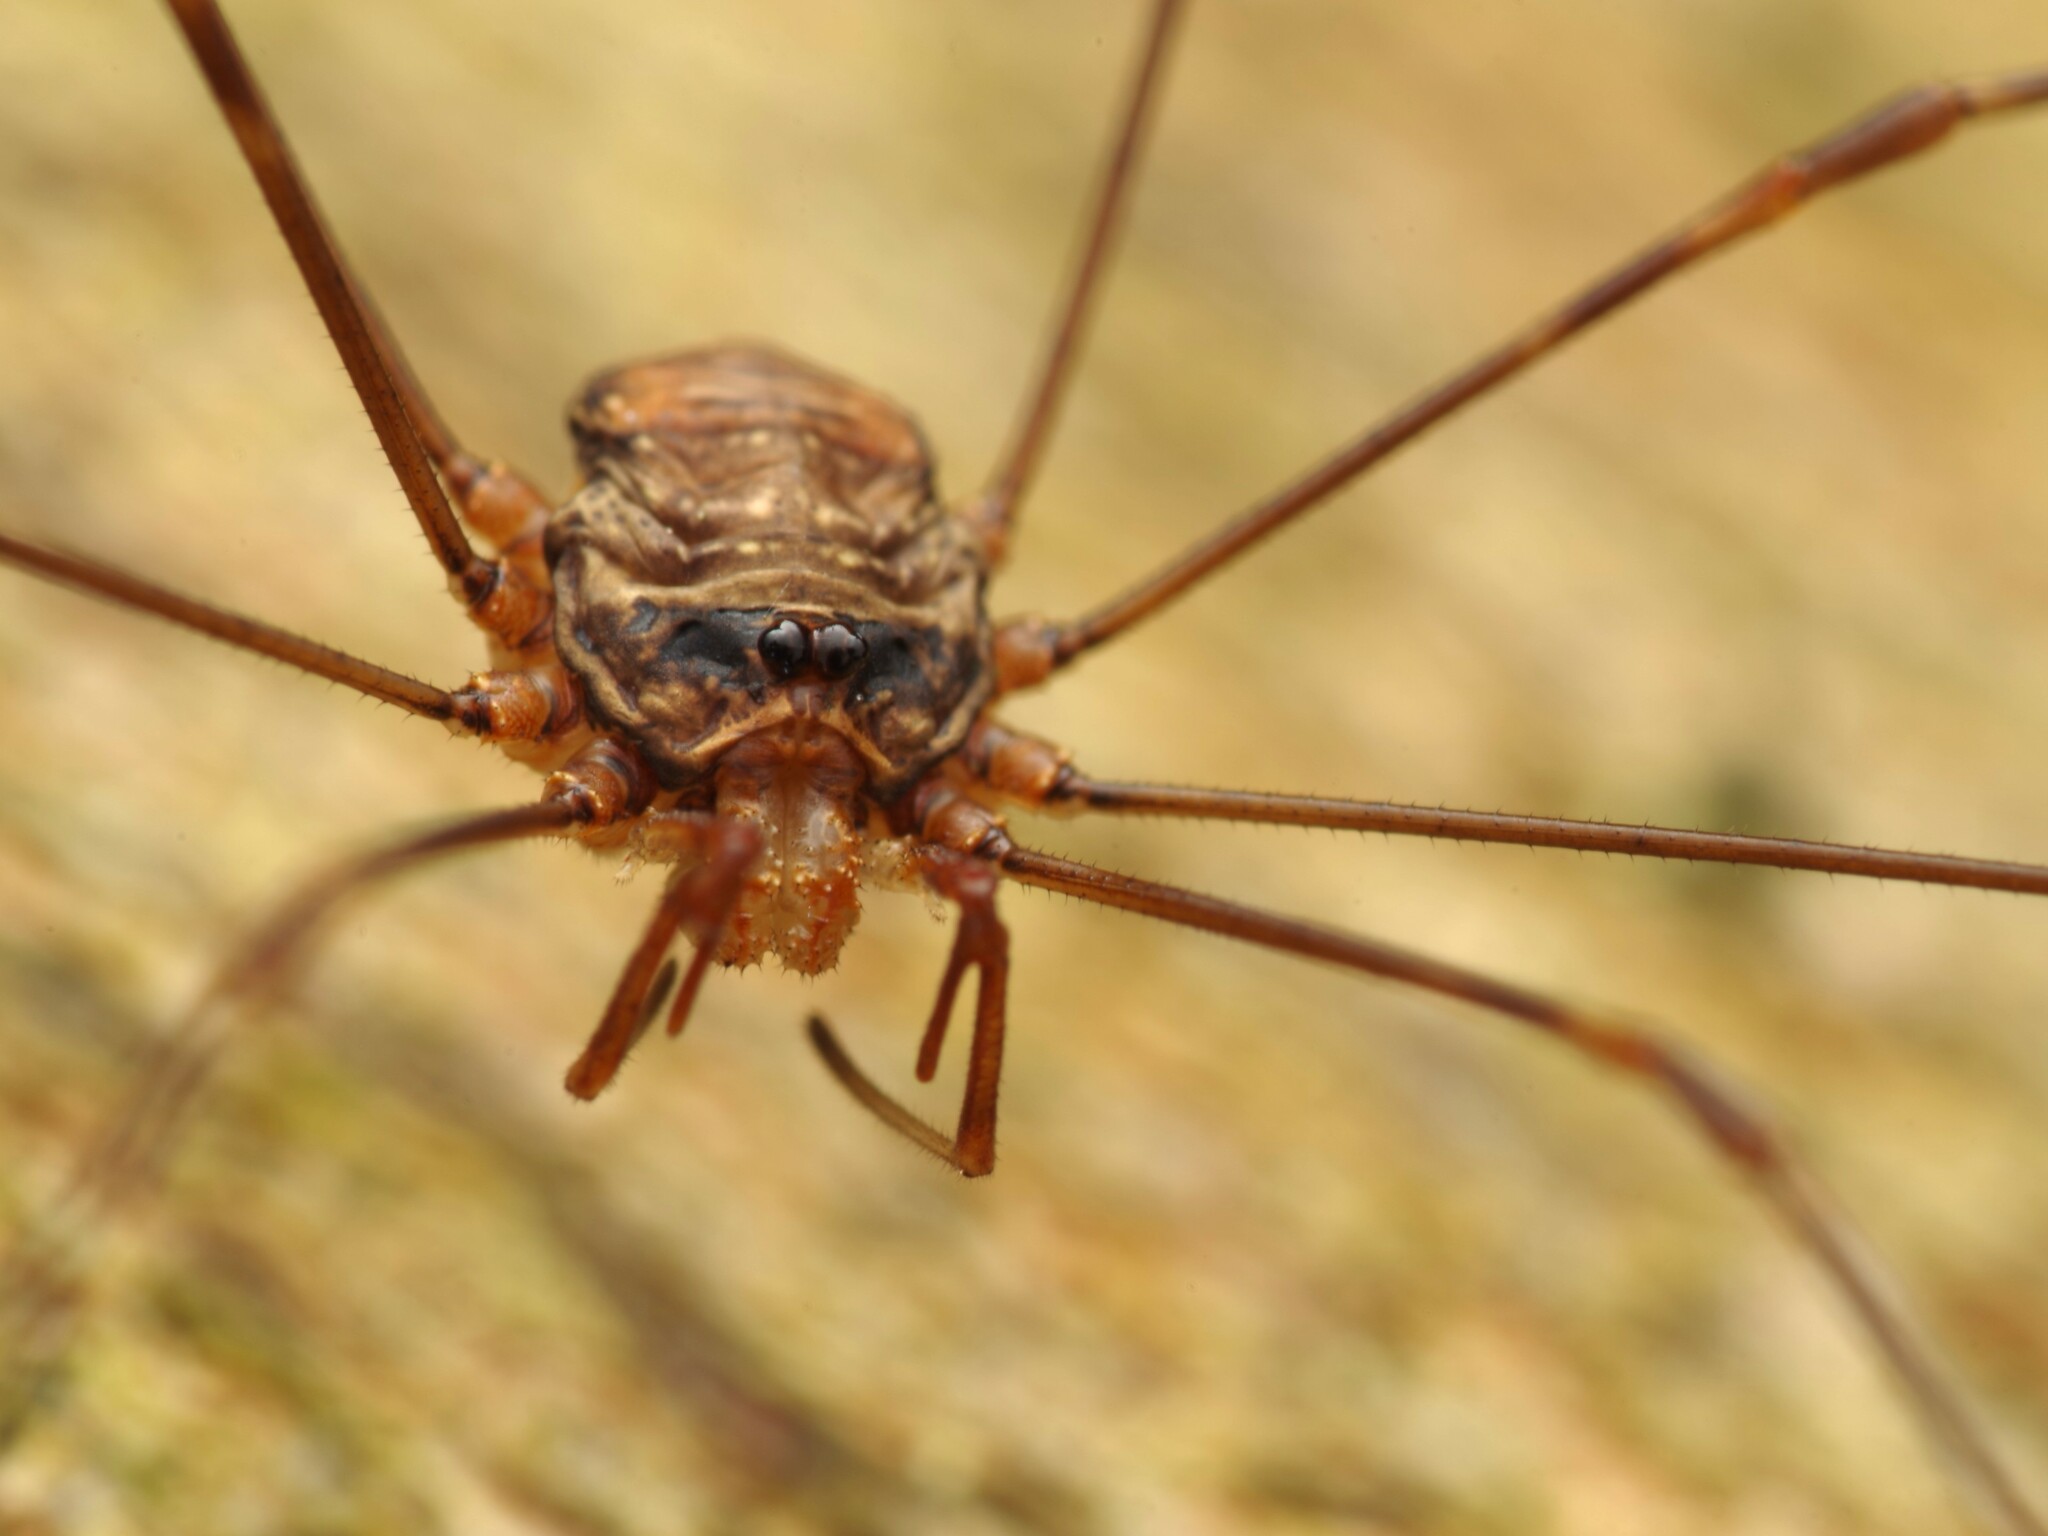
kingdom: Animalia
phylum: Arthropoda
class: Arachnida
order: Opiliones
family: Phalangiidae
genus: Dicranopalpus
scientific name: Dicranopalpus ramosus
